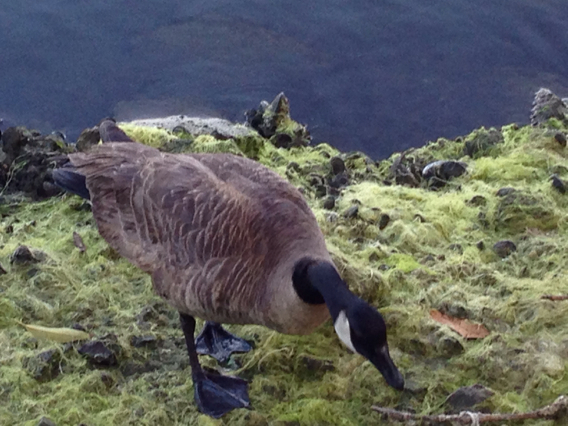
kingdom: Animalia
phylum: Chordata
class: Aves
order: Anseriformes
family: Anatidae
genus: Branta
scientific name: Branta canadensis
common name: Canada goose
